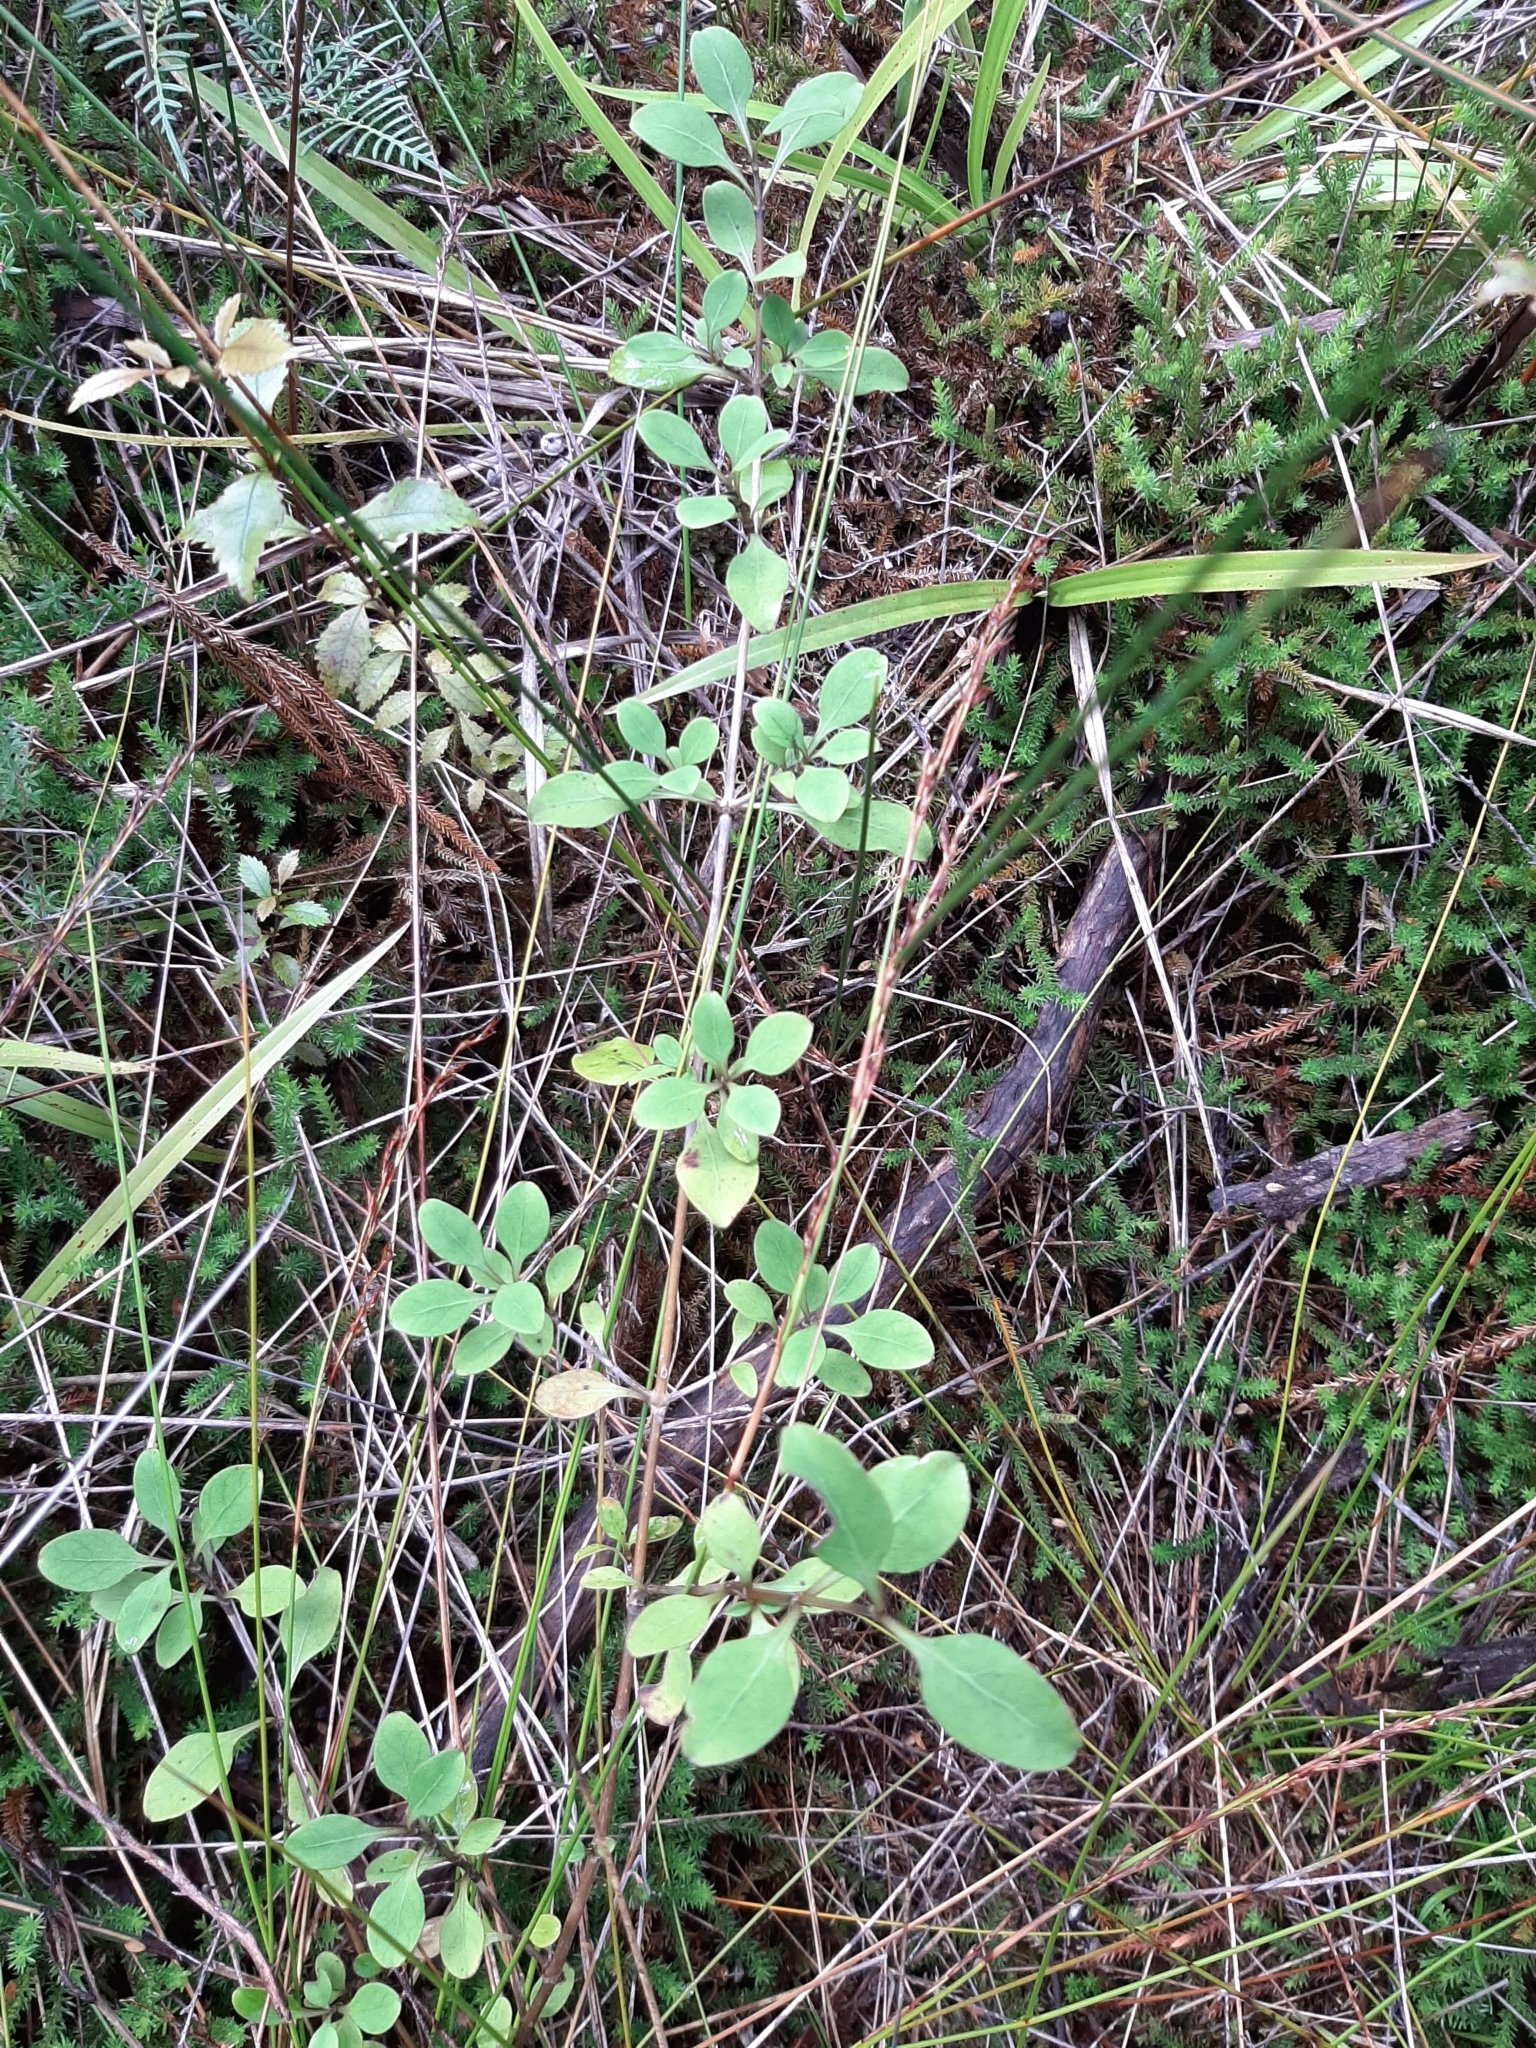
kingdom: Plantae
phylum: Tracheophyta
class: Magnoliopsida
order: Gentianales
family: Rubiaceae
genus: Coprosma
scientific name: Coprosma foetidissima
